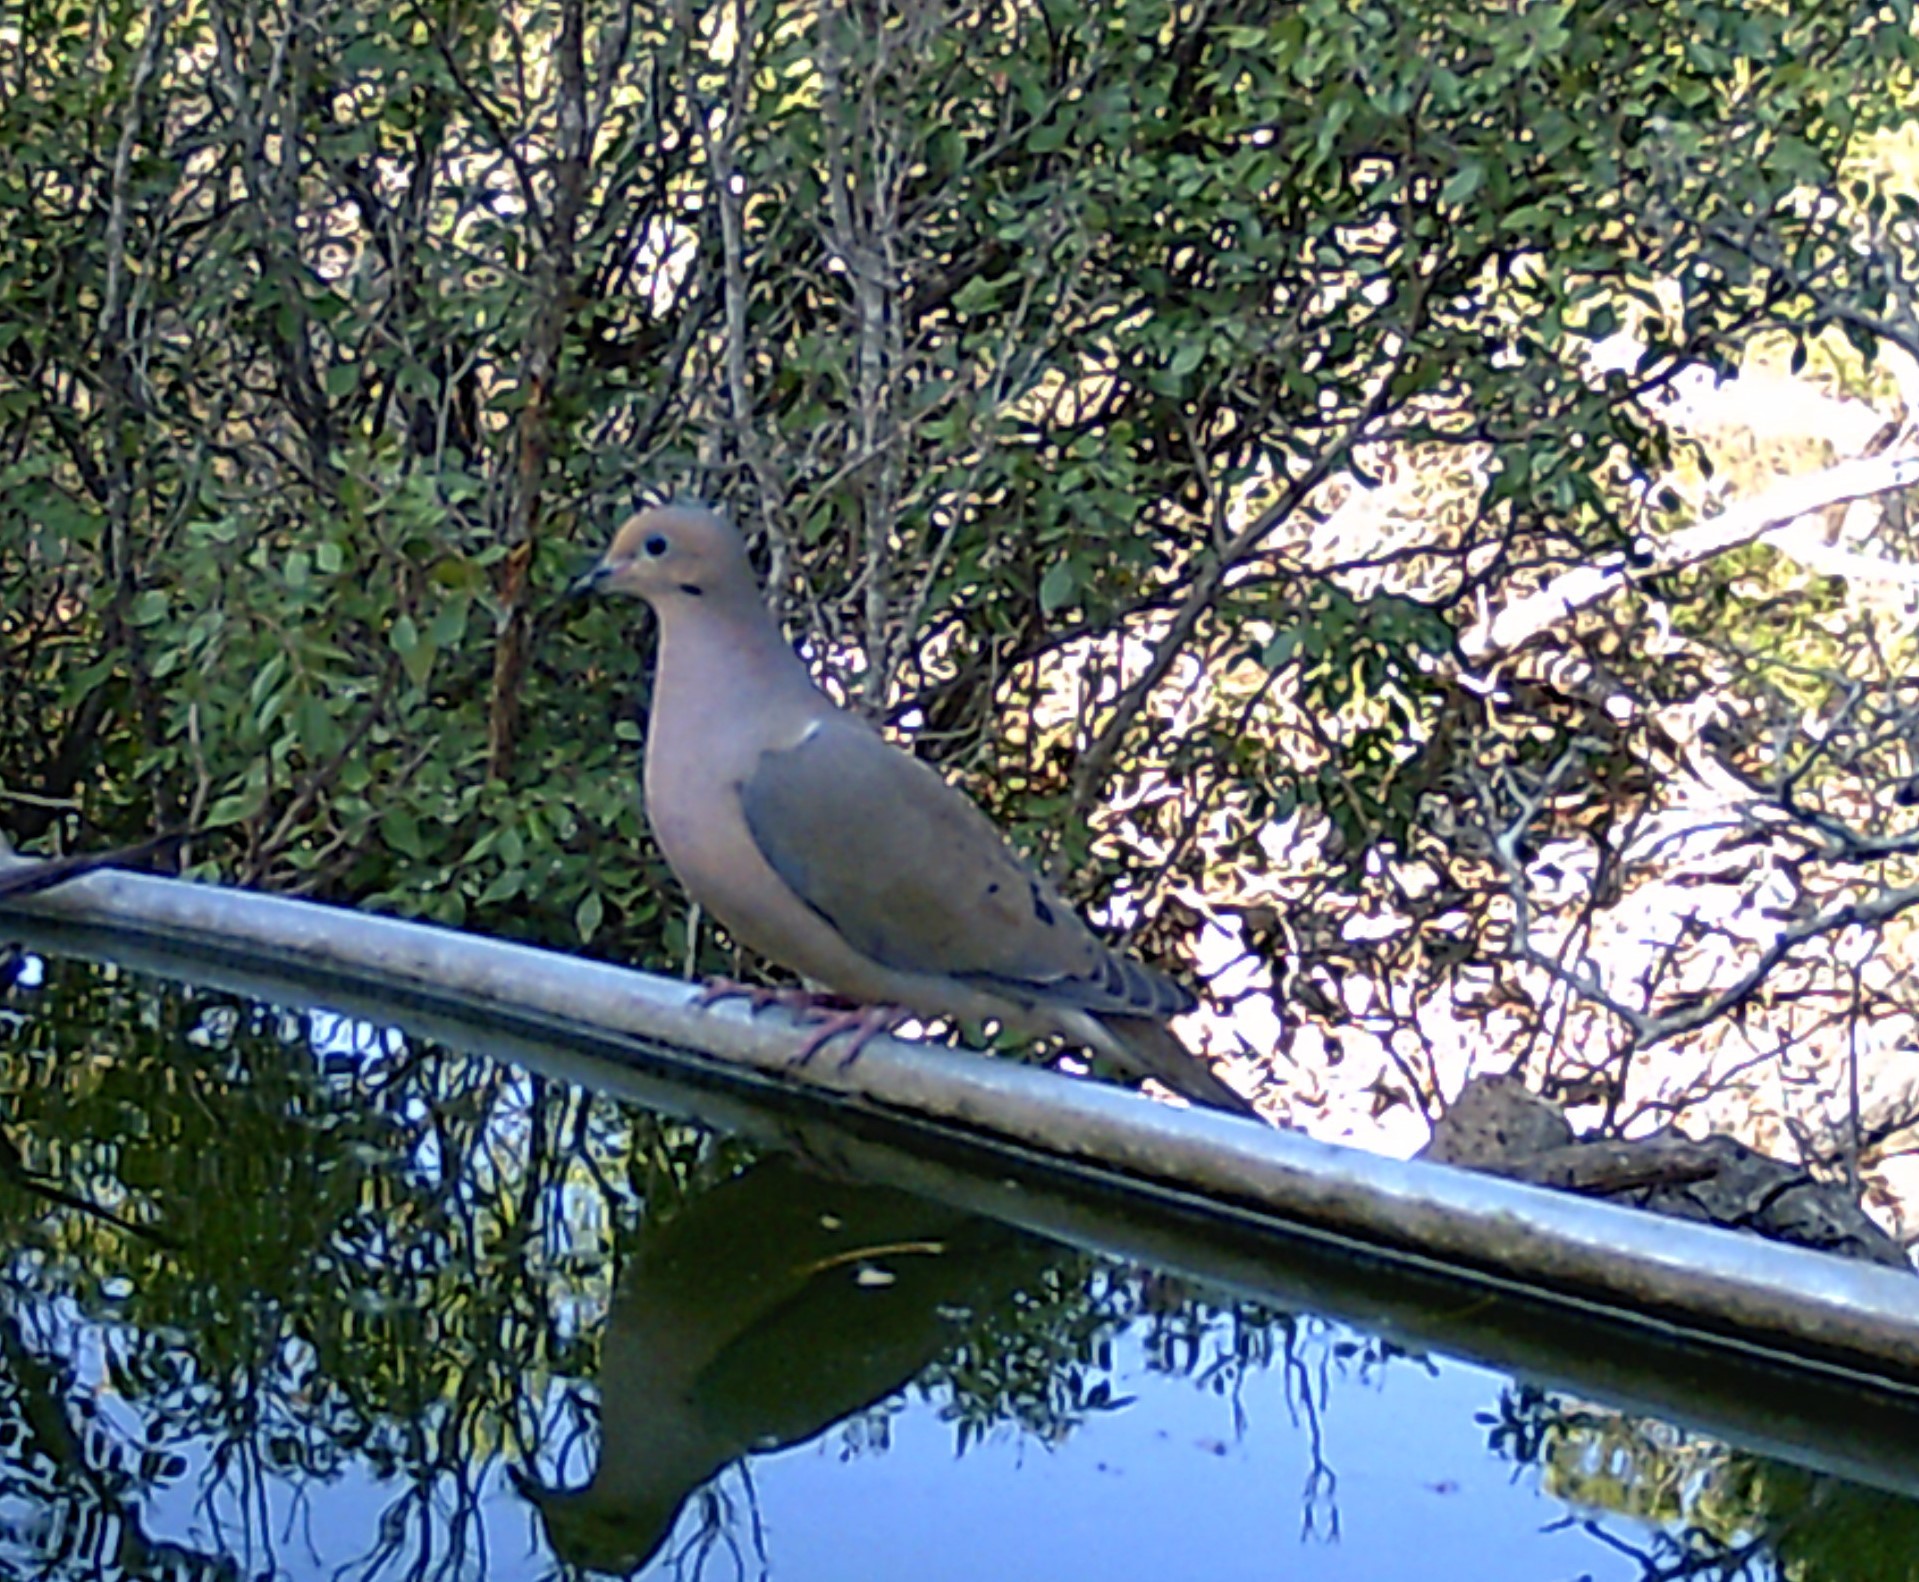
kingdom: Animalia
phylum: Chordata
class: Aves
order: Columbiformes
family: Columbidae
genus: Zenaida
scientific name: Zenaida macroura
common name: Mourning dove
